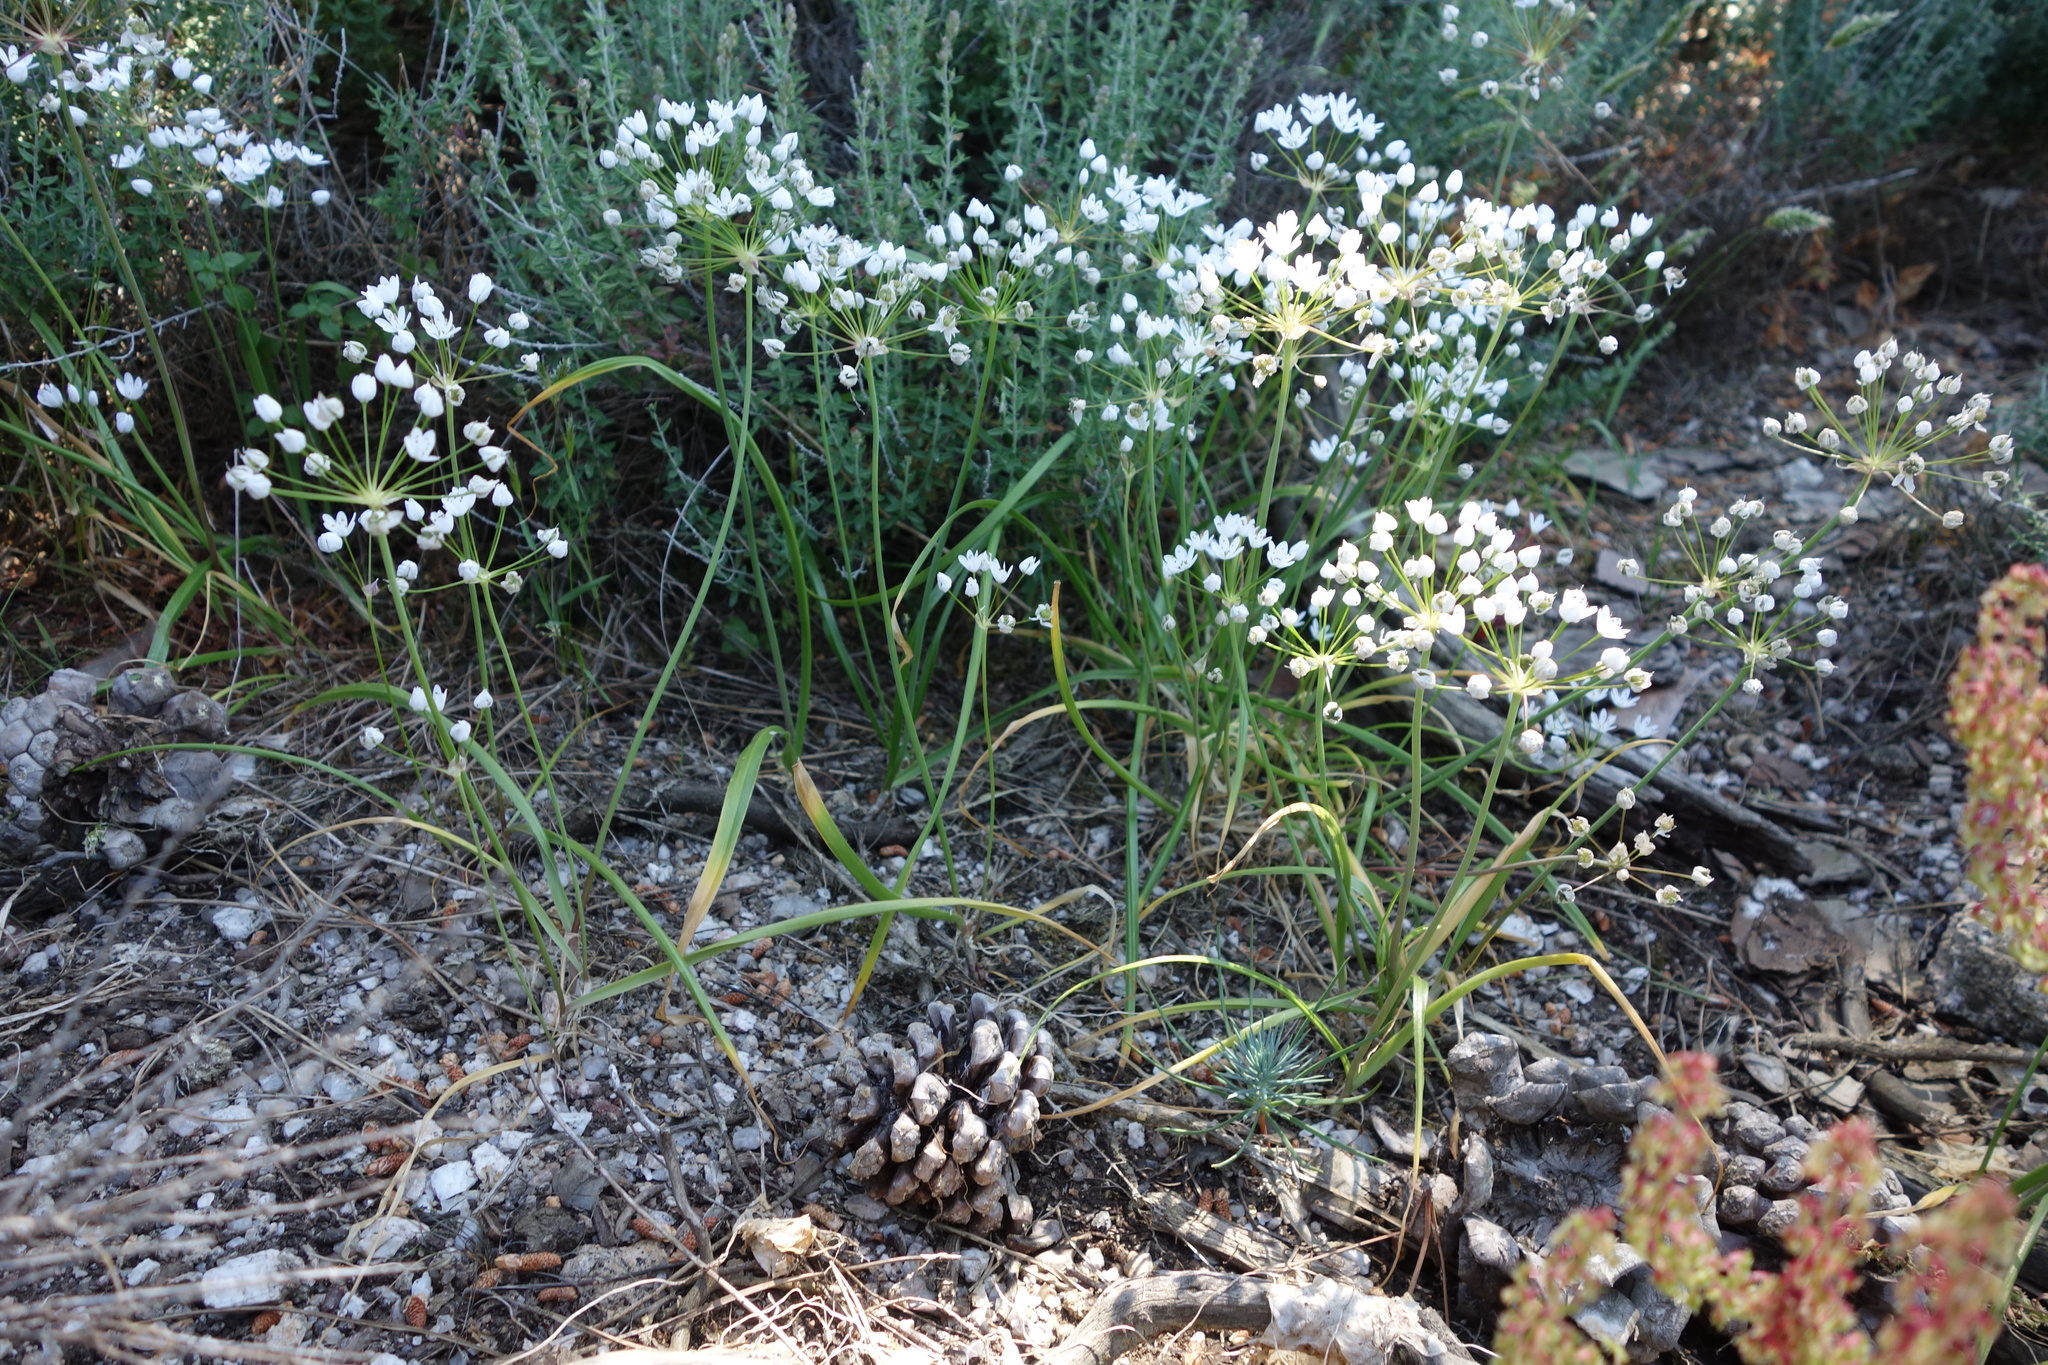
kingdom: Plantae
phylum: Tracheophyta
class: Liliopsida
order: Asparagales
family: Amaryllidaceae
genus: Allium
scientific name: Allium subhirsutum
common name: Hairy garlic
